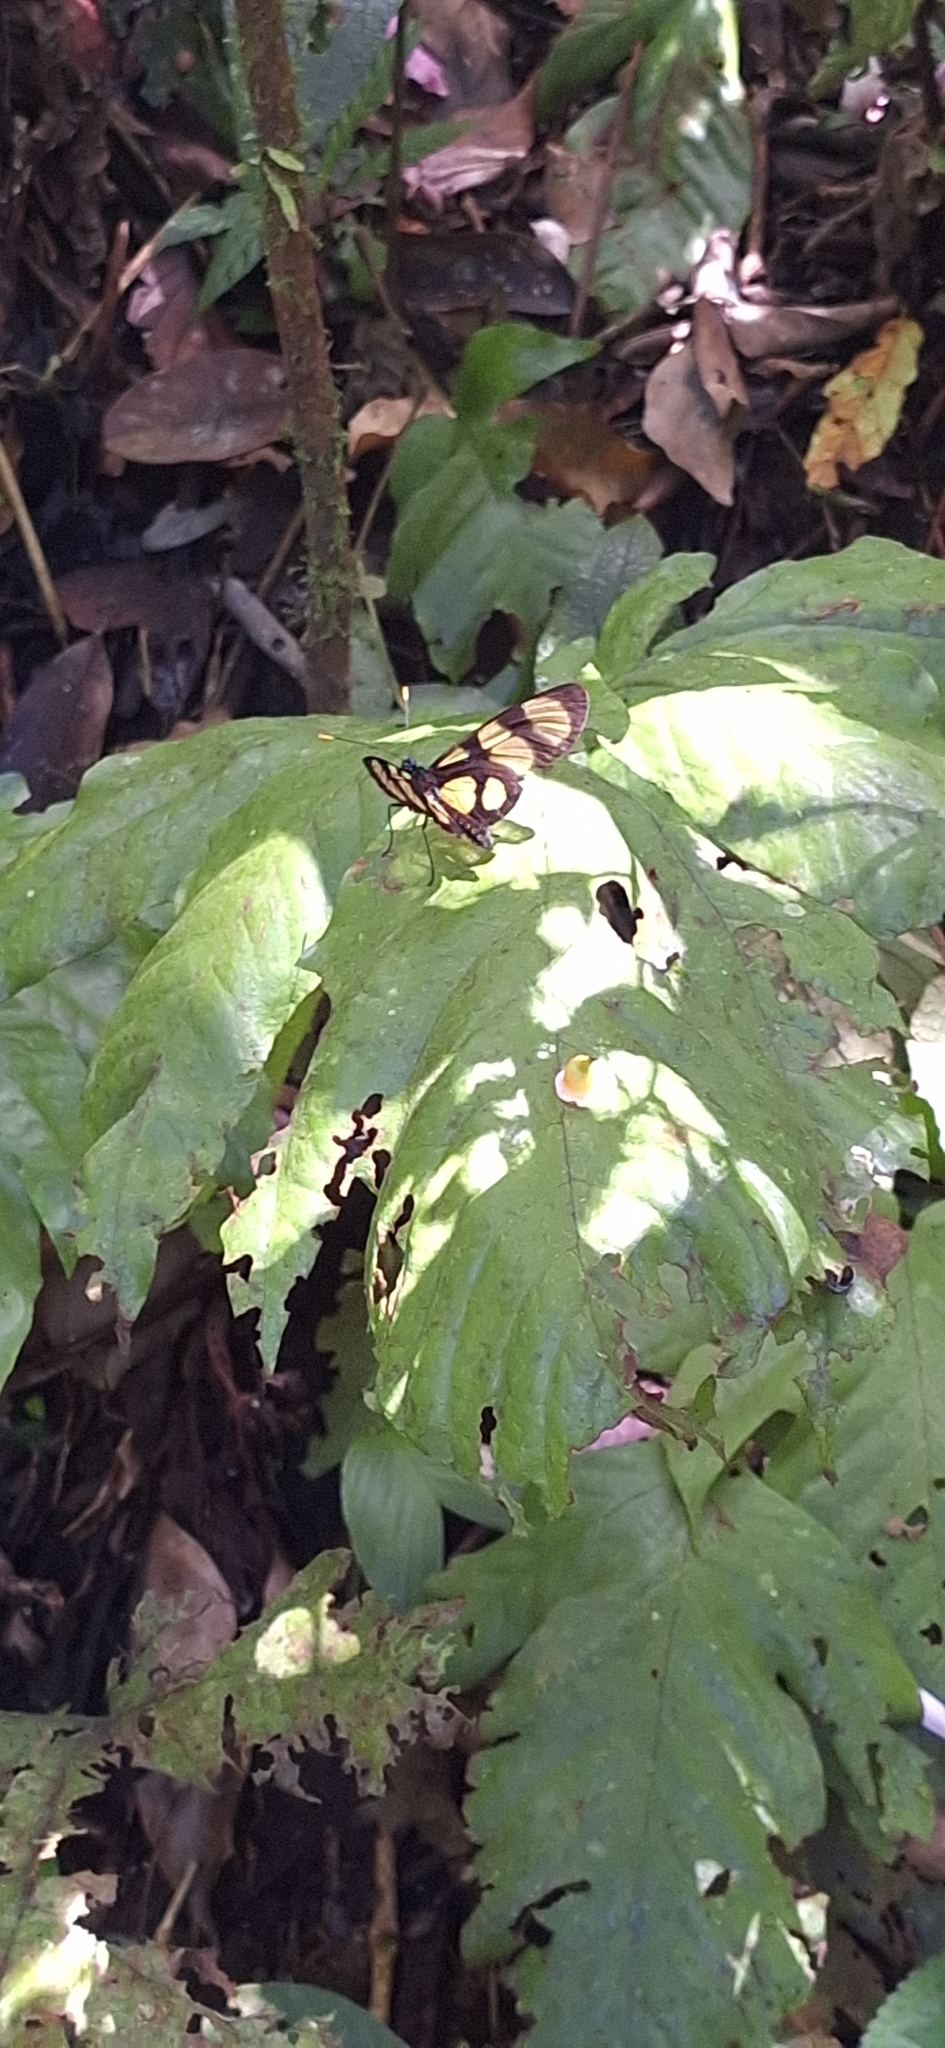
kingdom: Animalia
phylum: Arthropoda
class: Insecta
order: Lepidoptera
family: Nymphalidae
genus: Methona
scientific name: Methona confusa
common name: Confusa tigerwing
